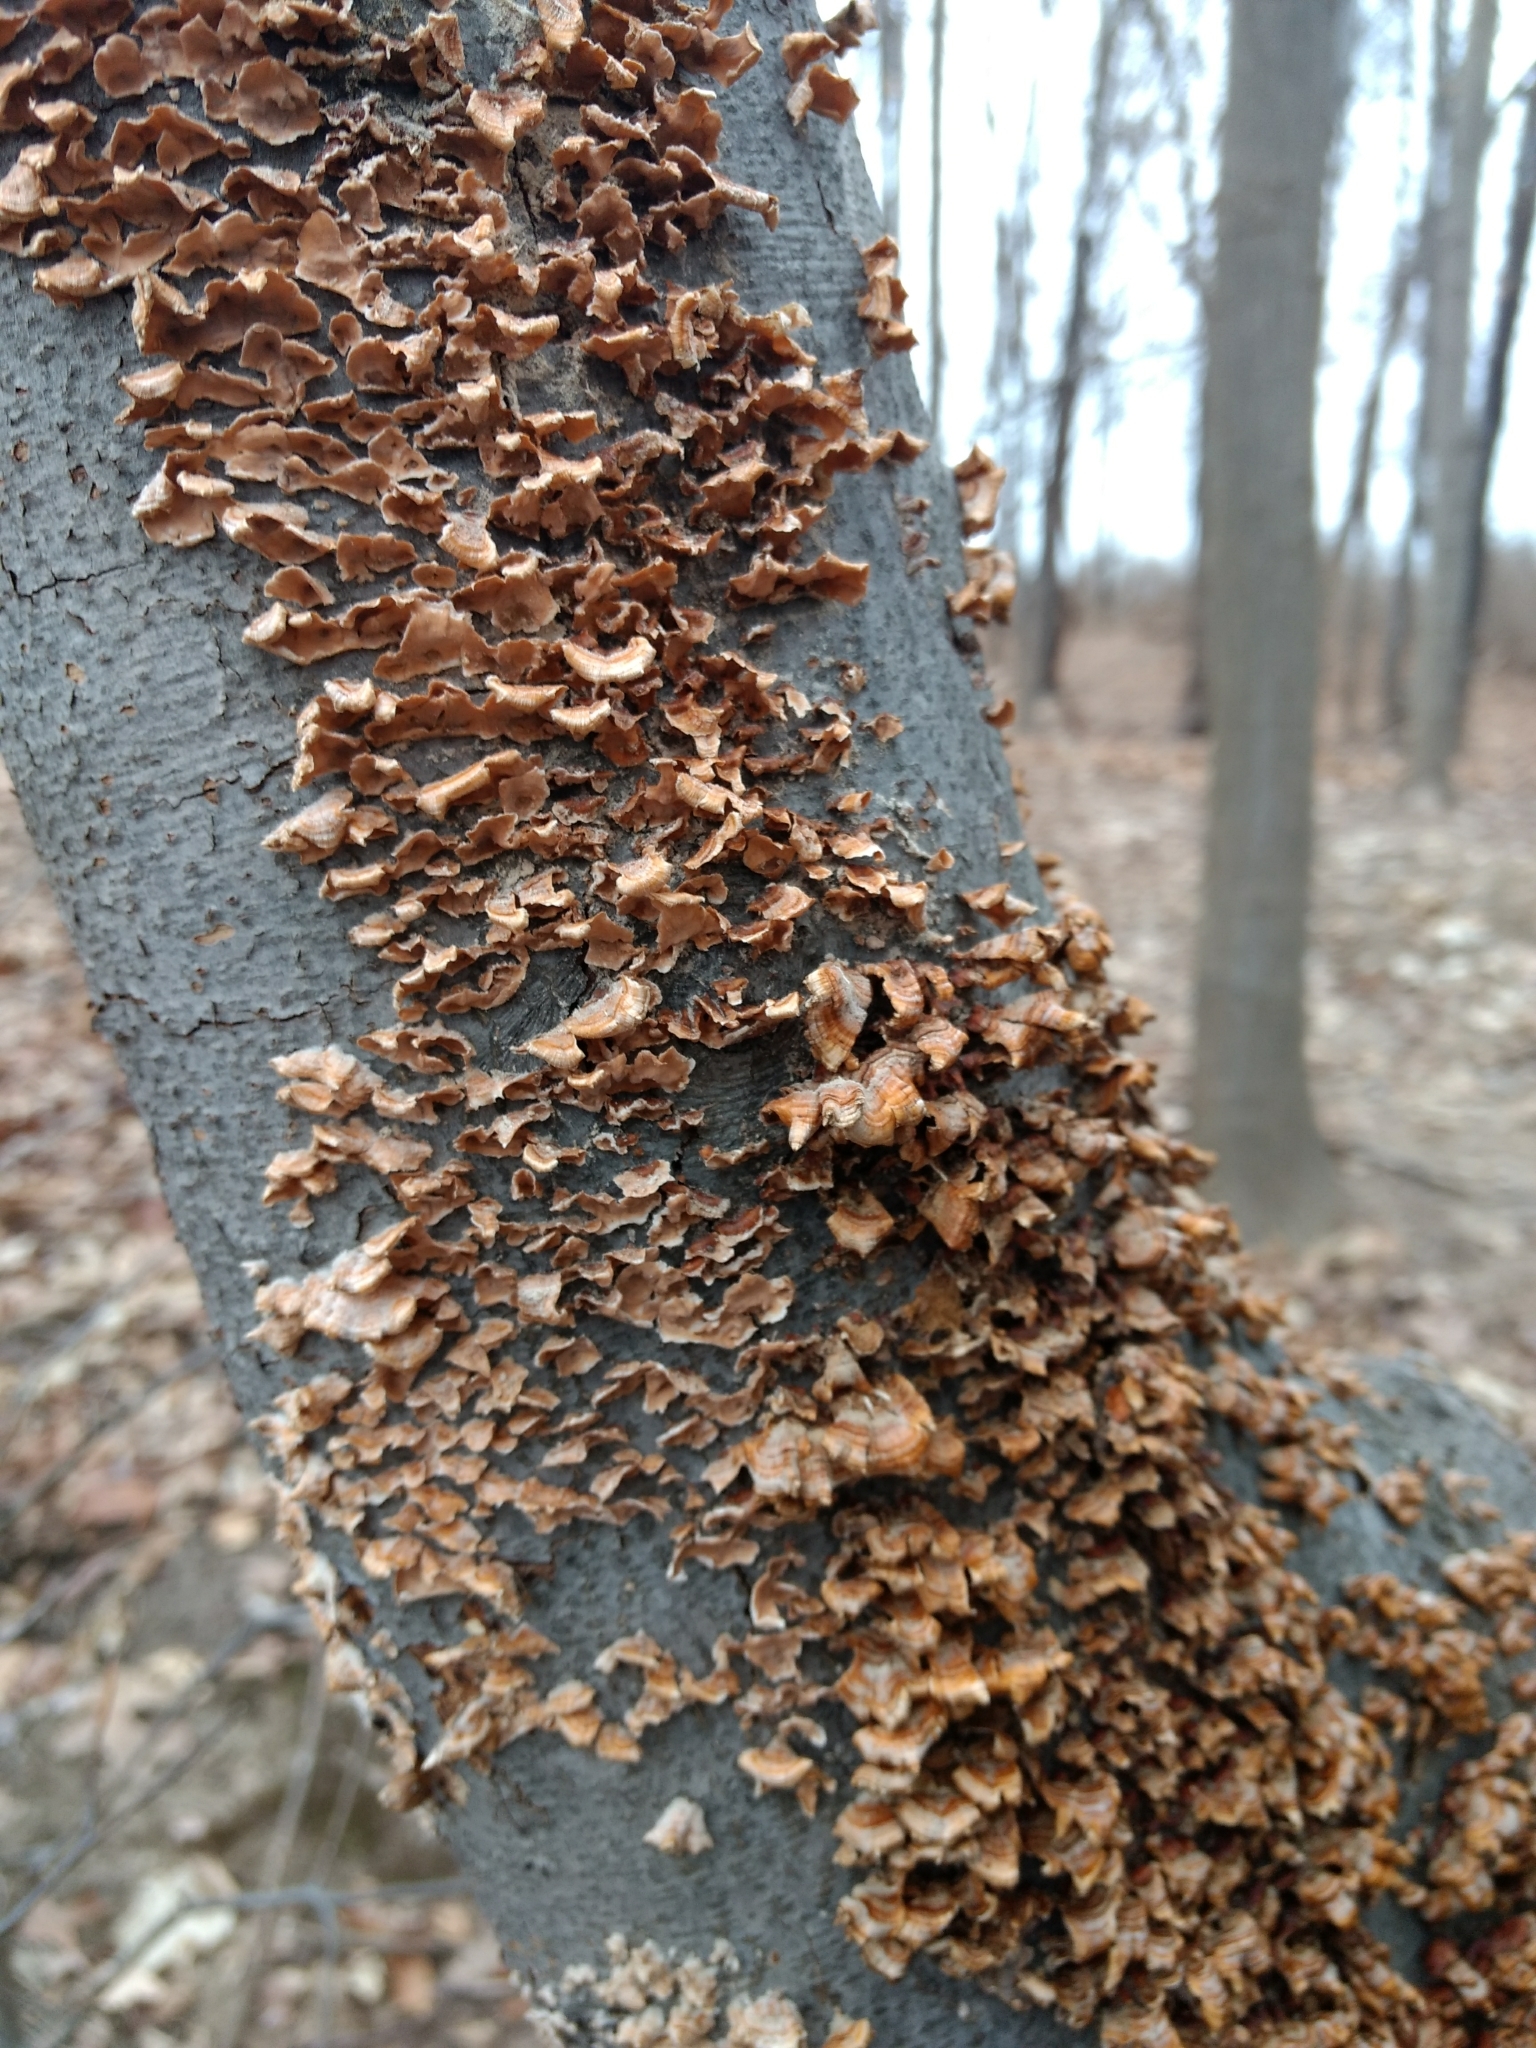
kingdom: Fungi
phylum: Basidiomycota
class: Agaricomycetes
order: Russulales
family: Stereaceae
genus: Stereum
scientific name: Stereum complicatum
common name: Crowded parchment
